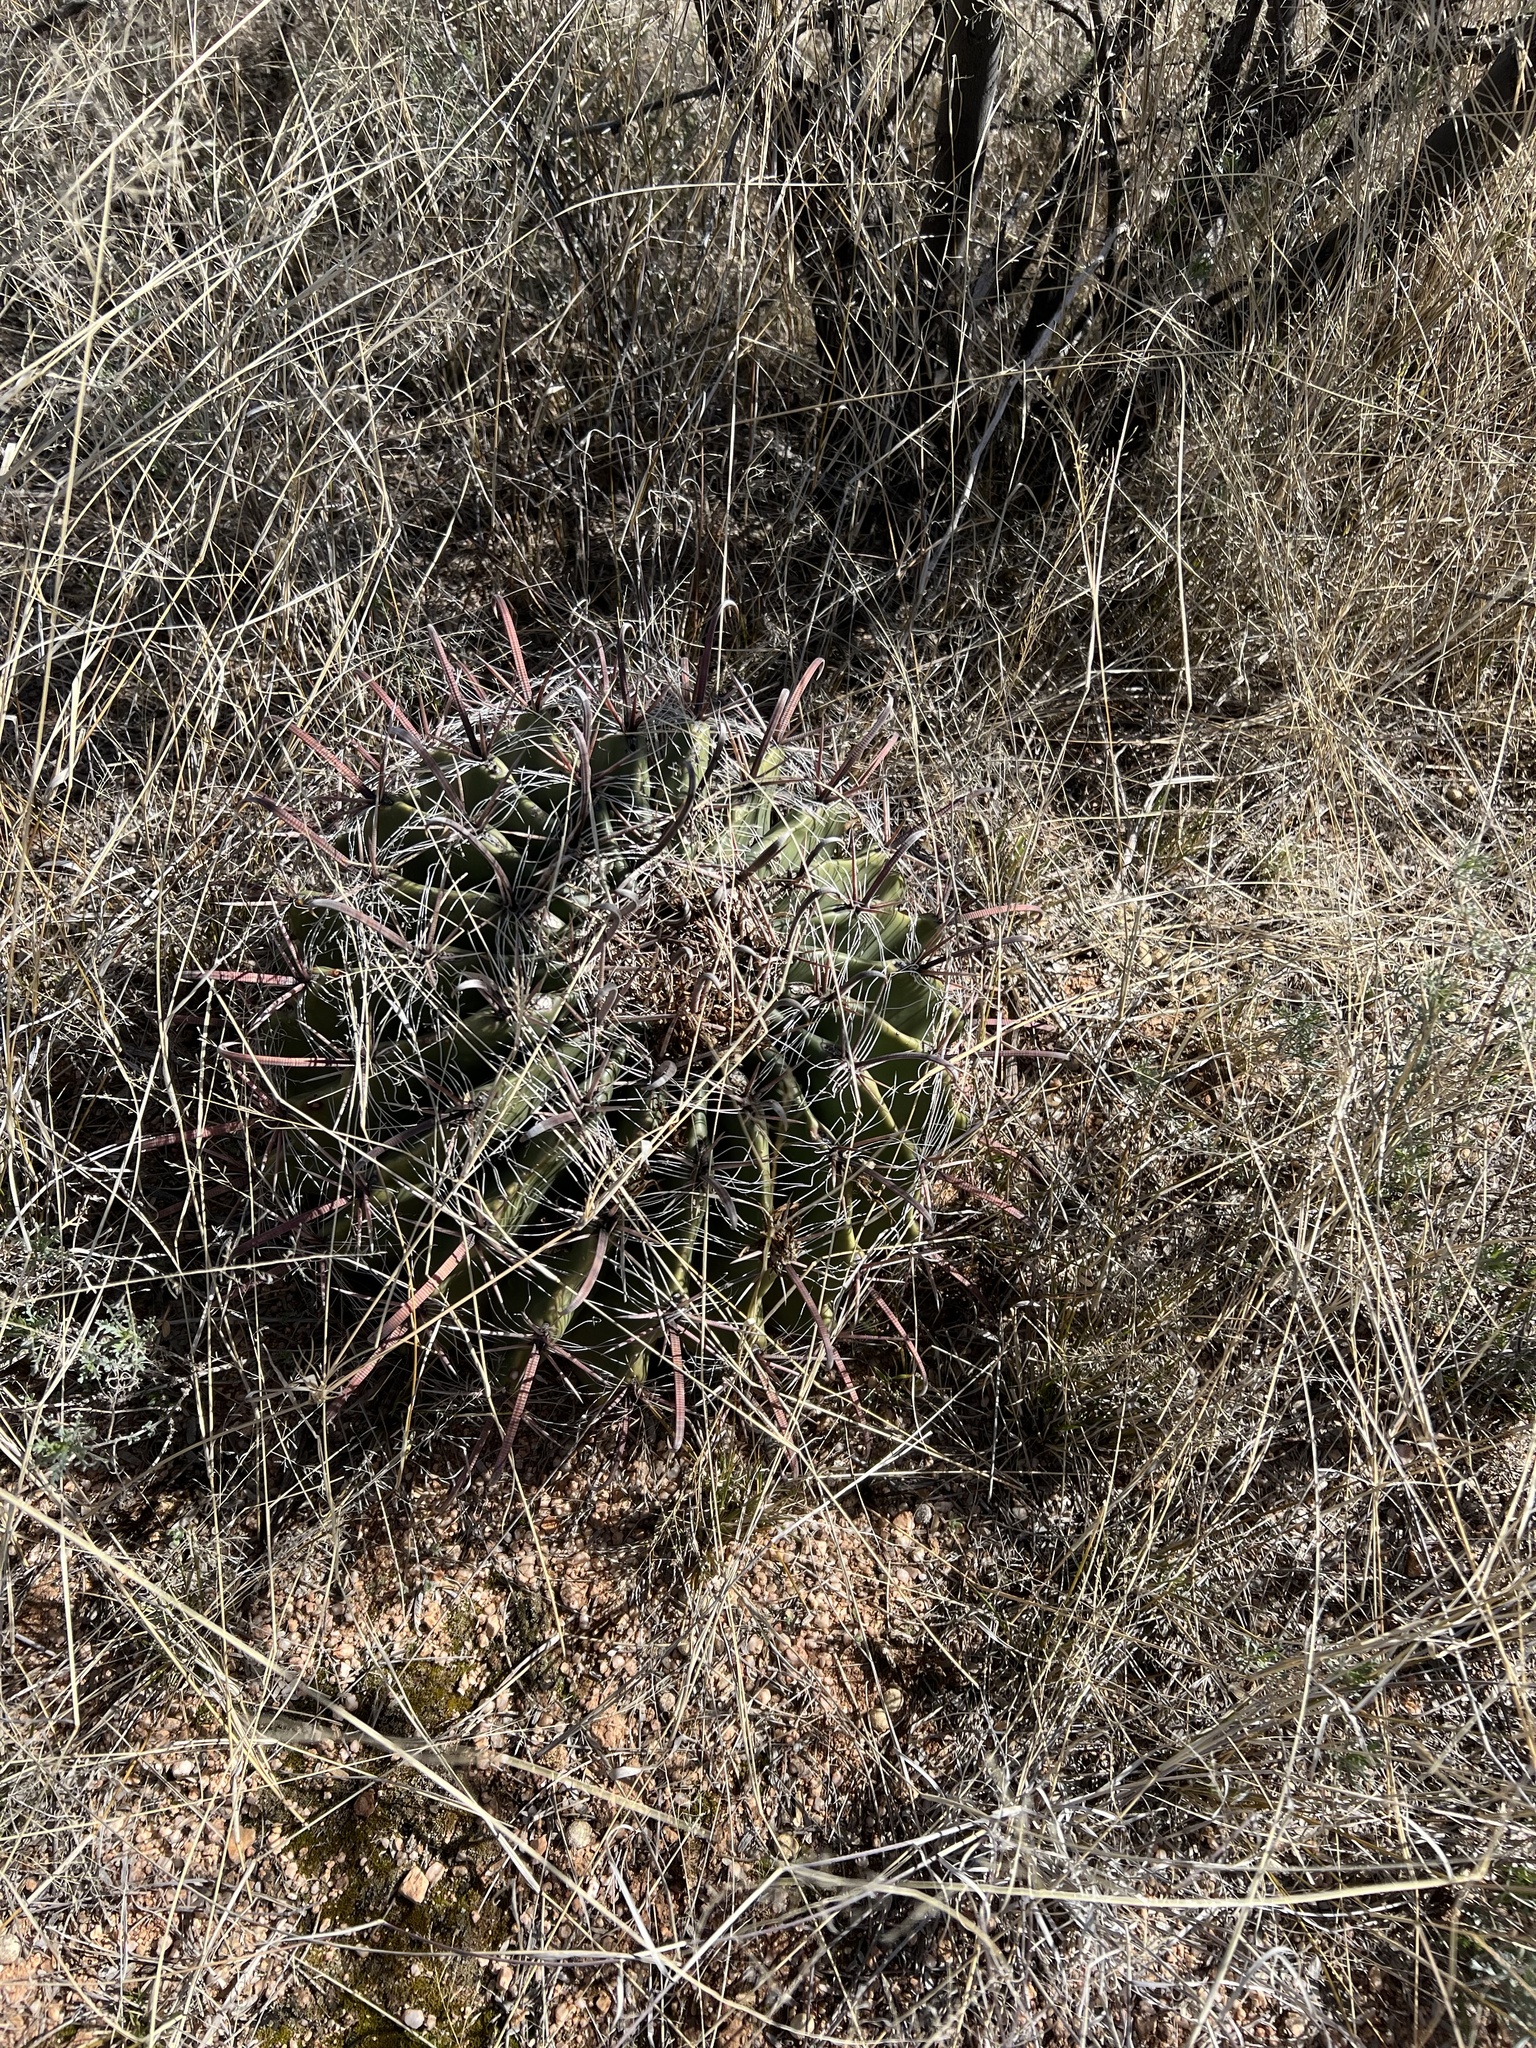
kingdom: Plantae
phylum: Tracheophyta
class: Magnoliopsida
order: Caryophyllales
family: Cactaceae
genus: Ferocactus
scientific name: Ferocactus wislizeni
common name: Candy barrel cactus
